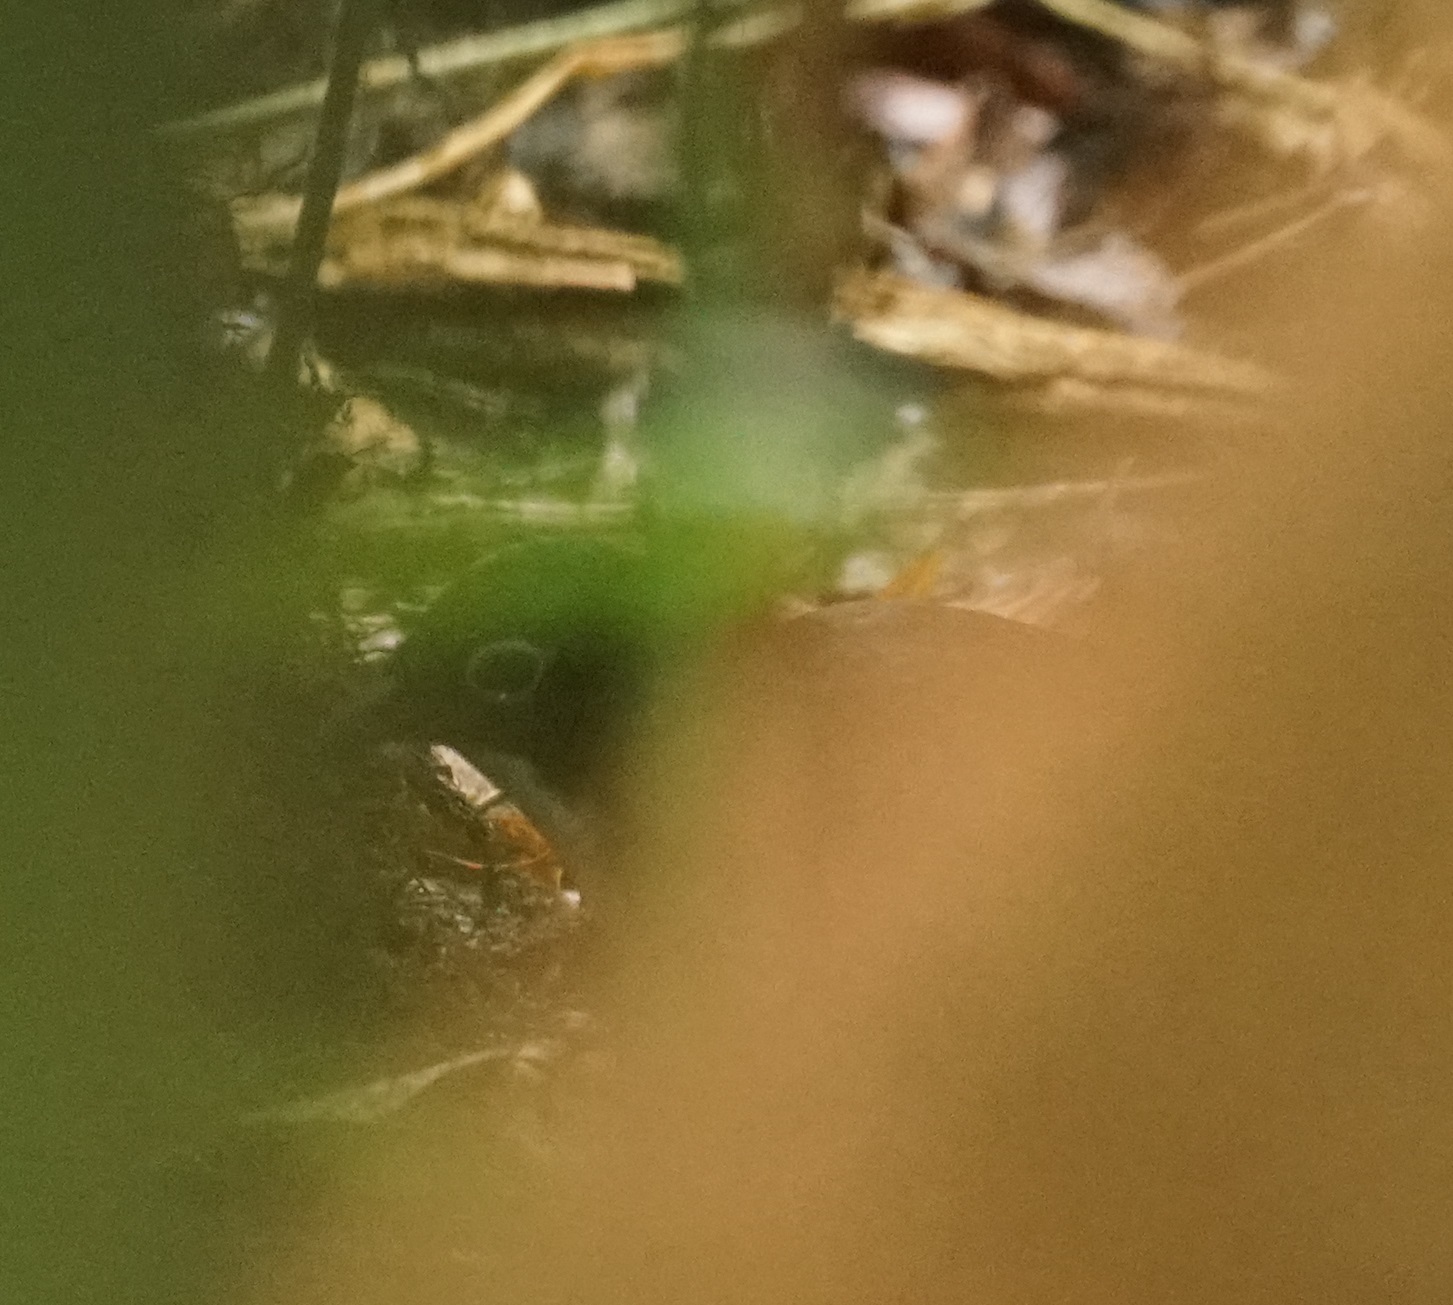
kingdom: Animalia
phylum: Chordata
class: Aves
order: Passeriformes
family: Orthonychidae
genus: Orthonyx
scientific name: Orthonyx spaldingii
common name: Chowchilla
